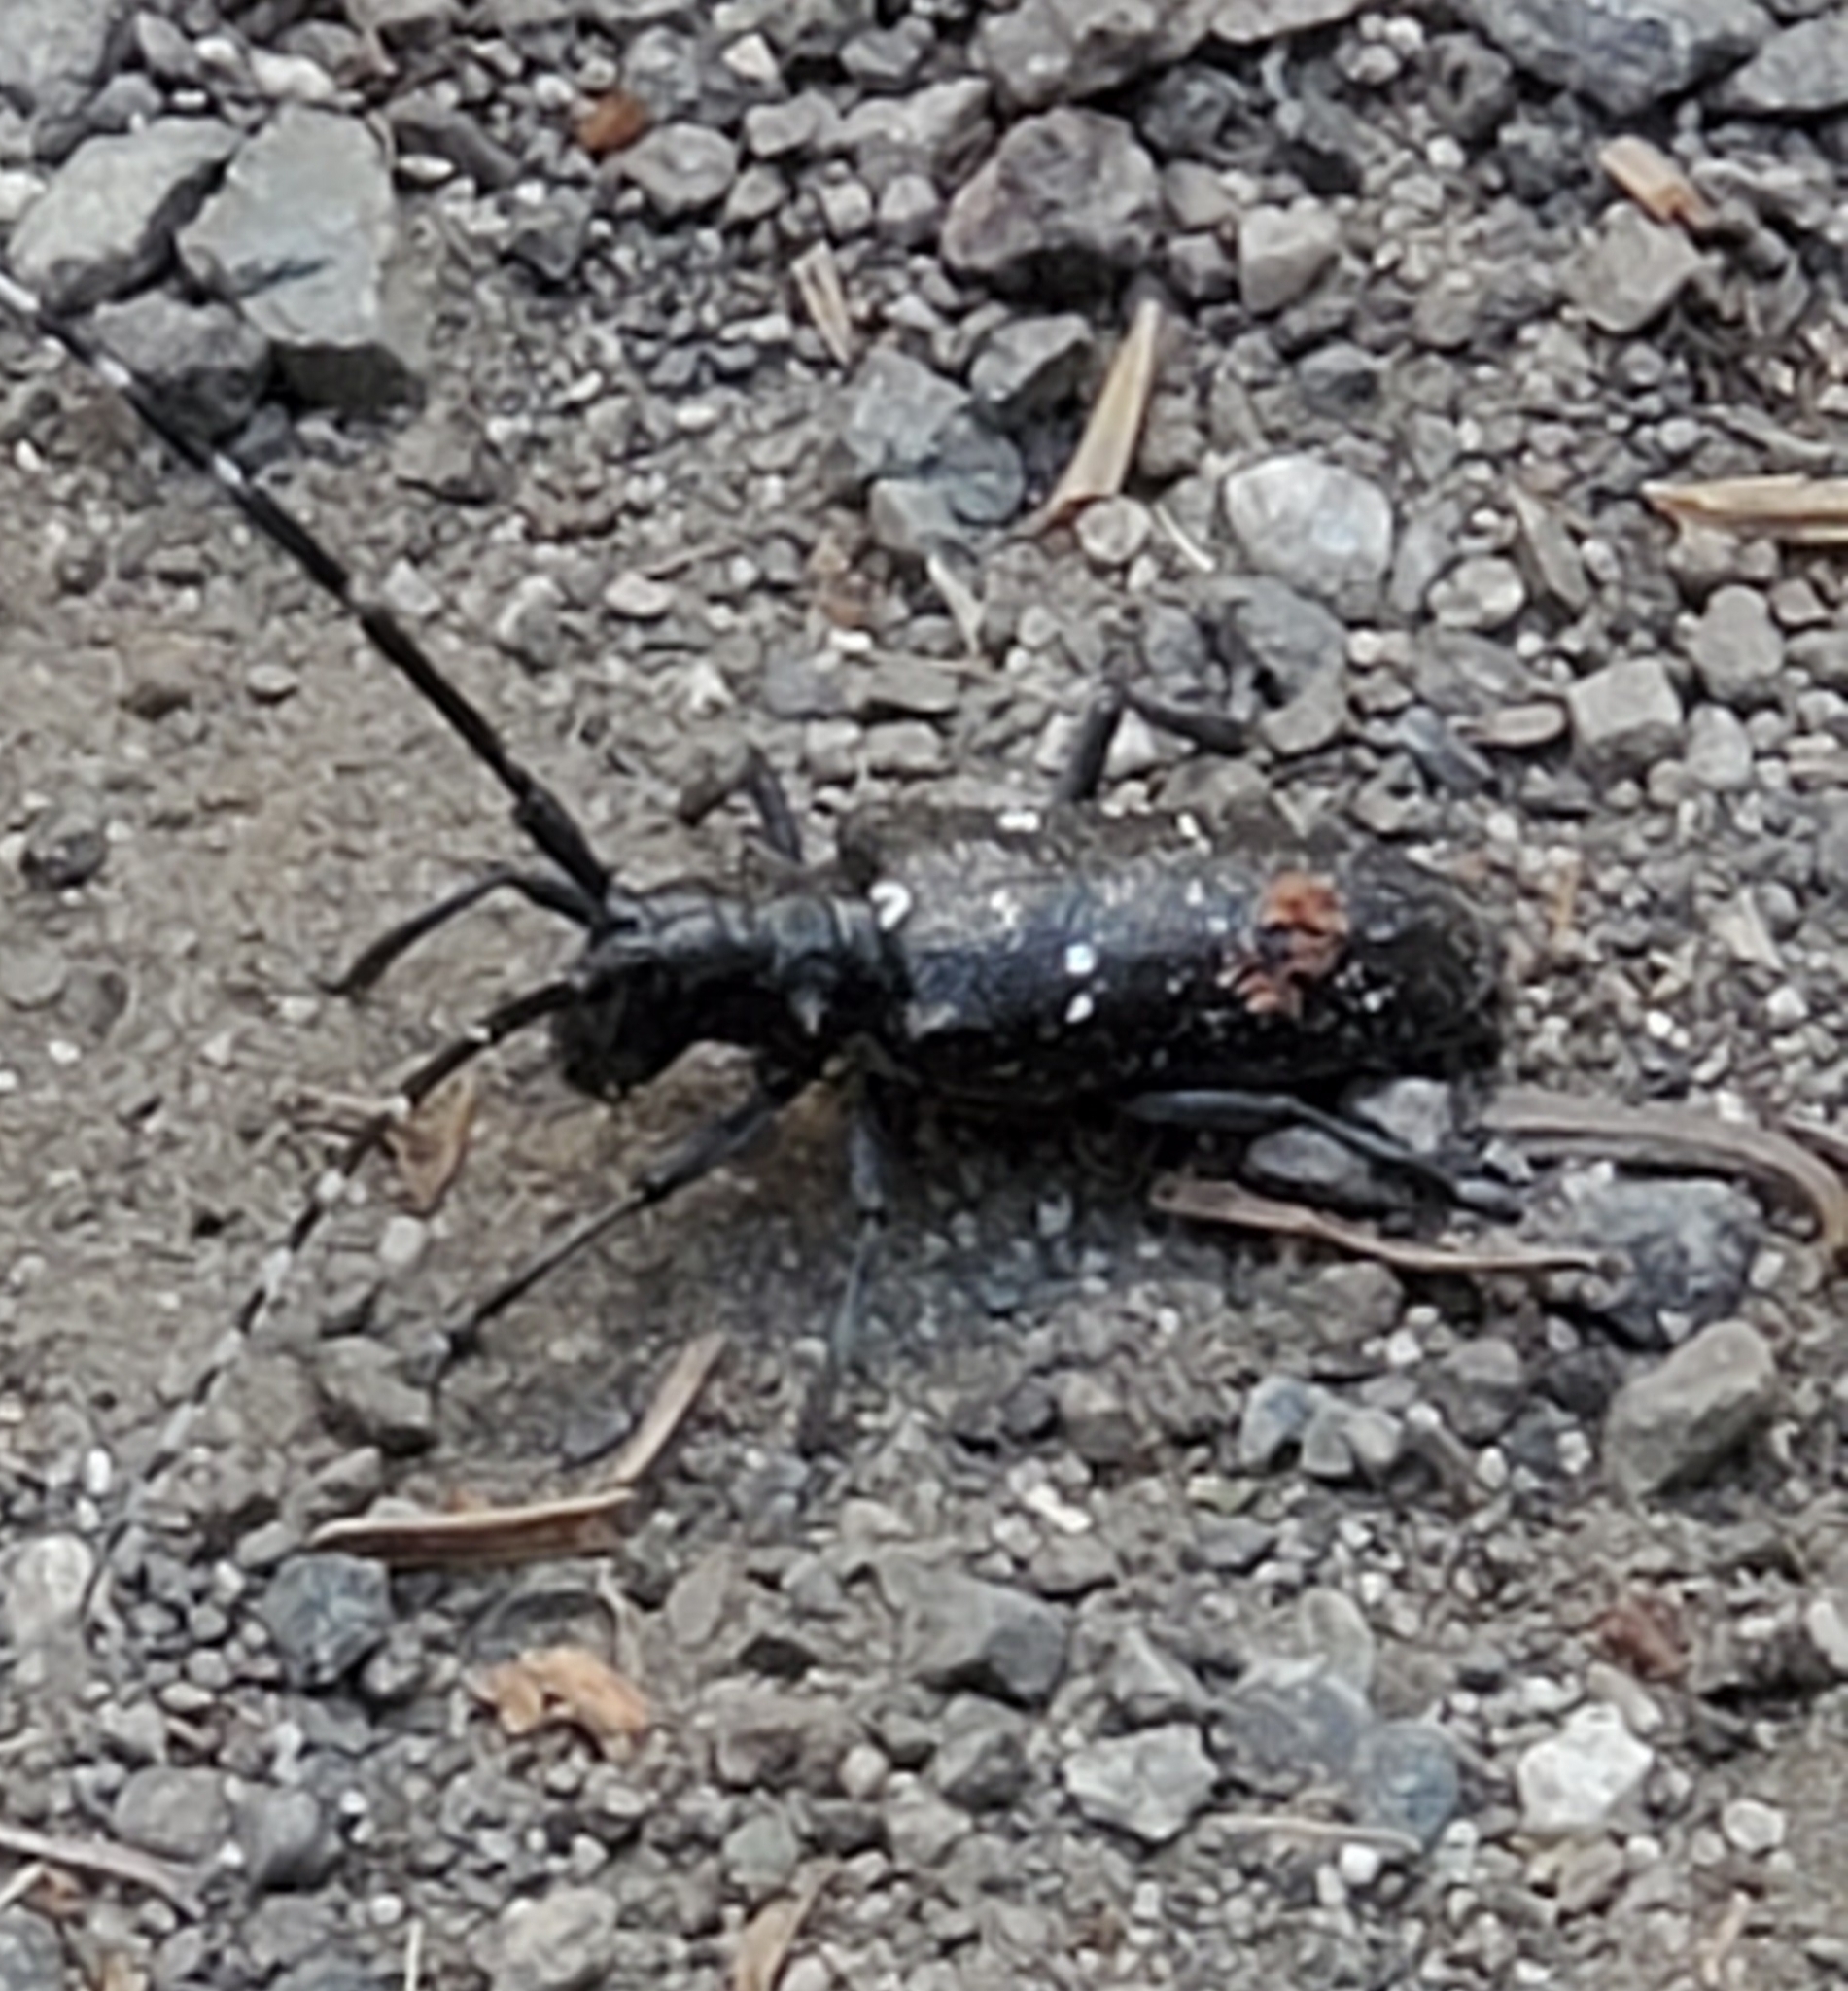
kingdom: Animalia
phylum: Arthropoda
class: Insecta
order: Coleoptera
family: Cerambycidae
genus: Monochamus
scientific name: Monochamus scutellatus
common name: White-spotted sawyer beetle
